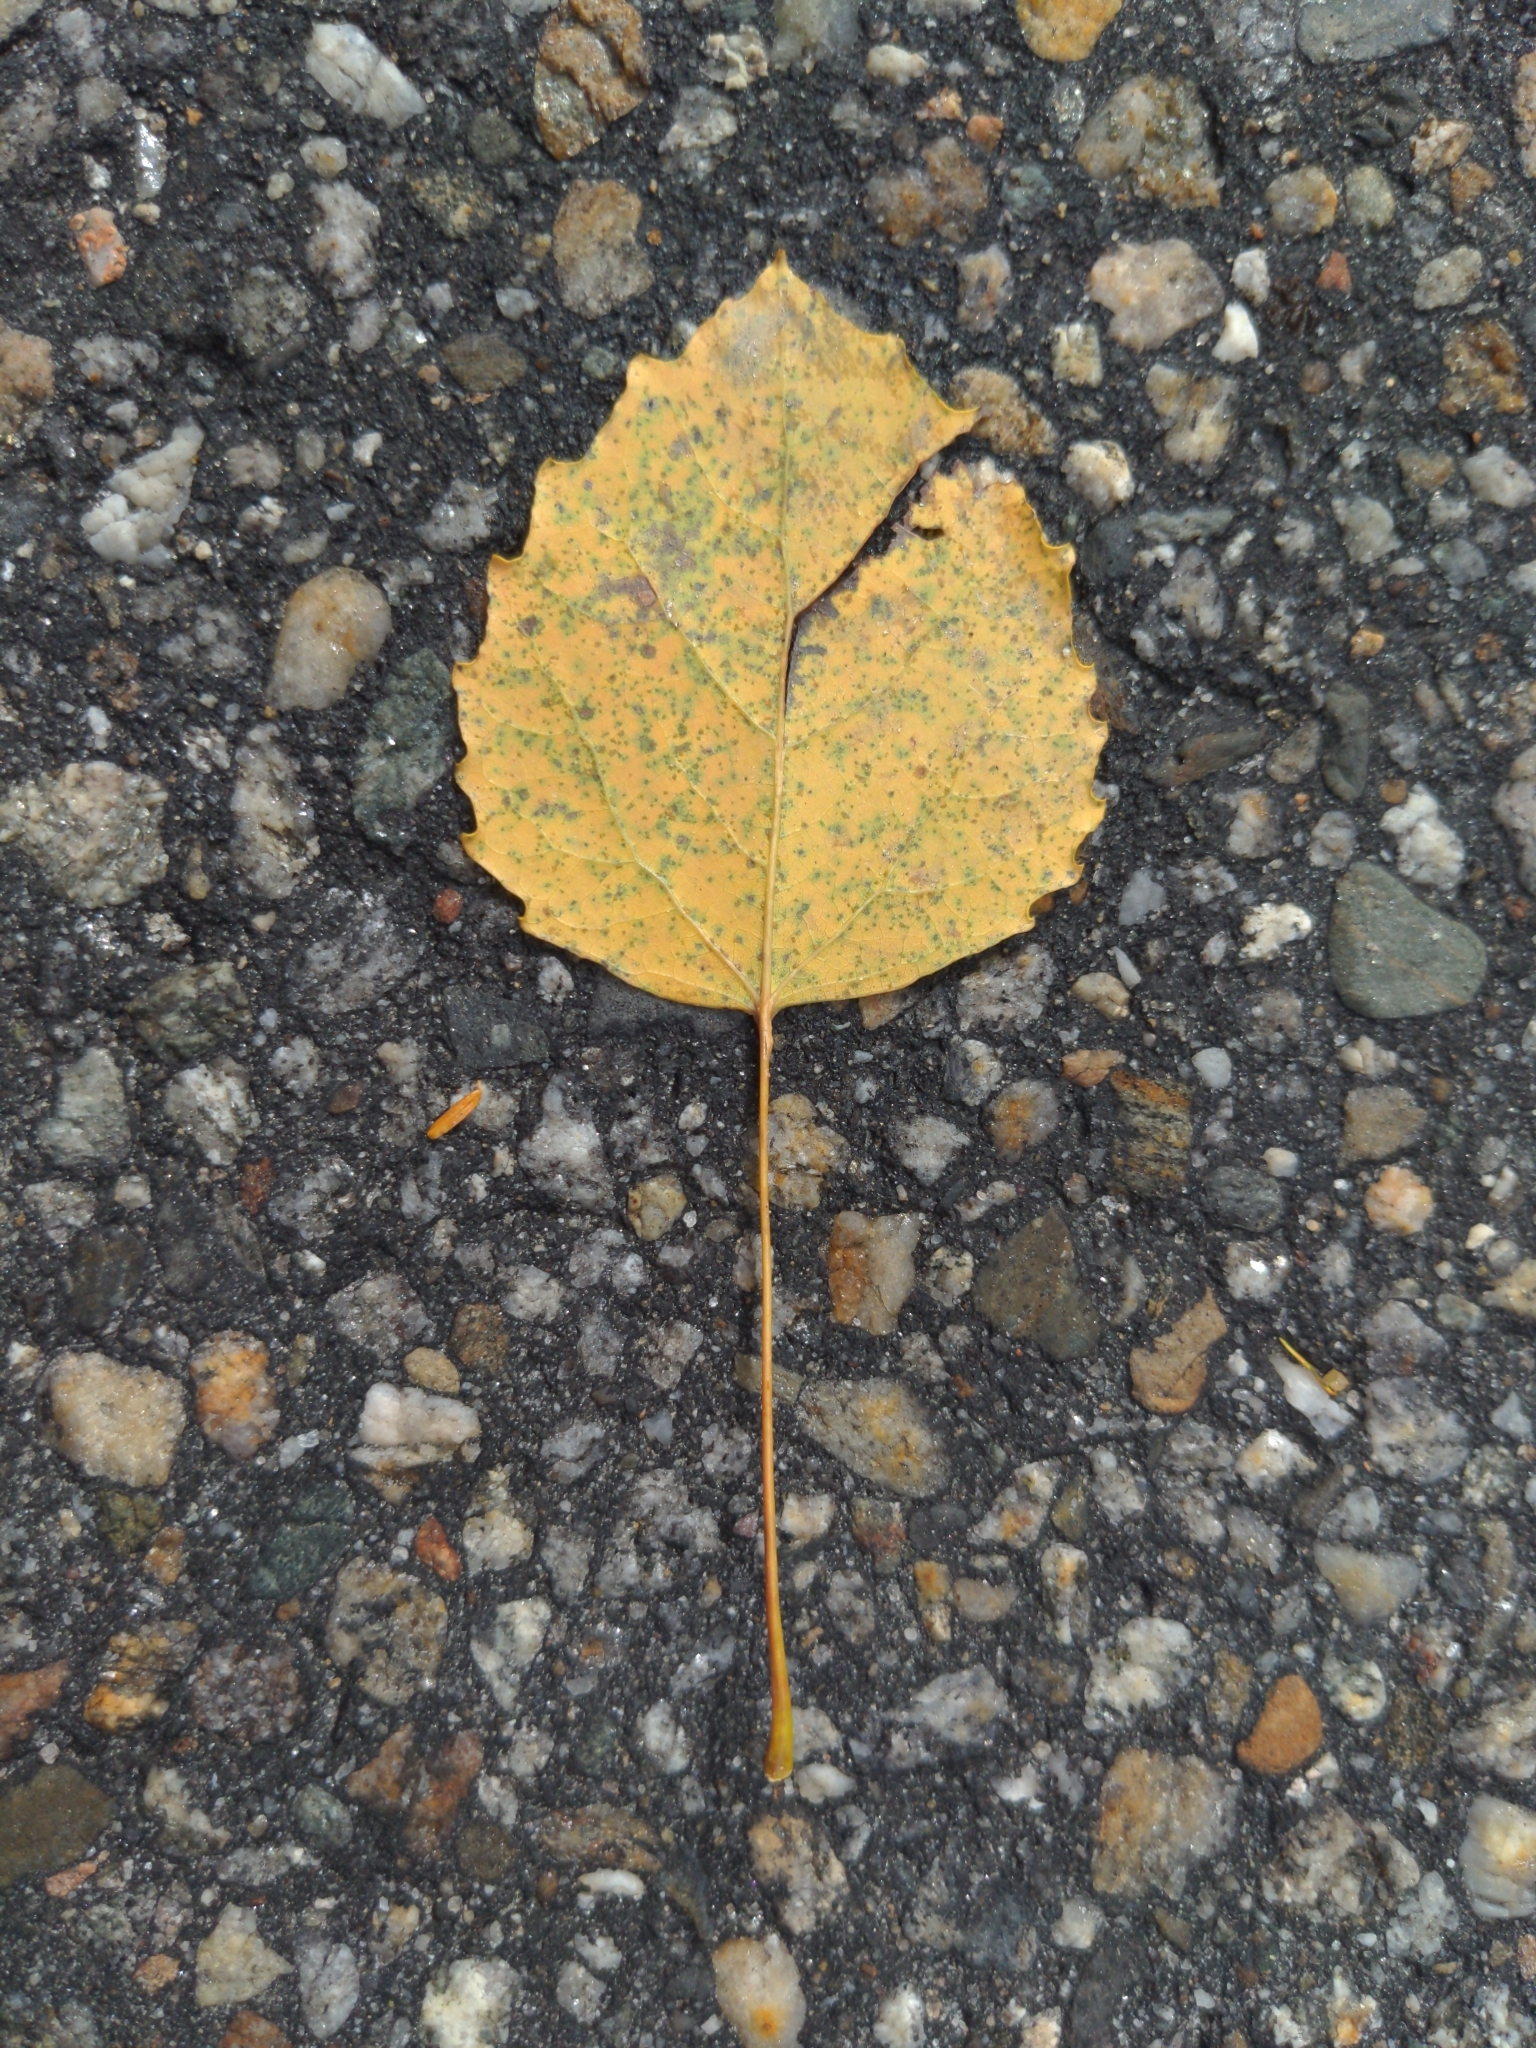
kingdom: Plantae
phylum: Tracheophyta
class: Magnoliopsida
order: Malpighiales
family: Salicaceae
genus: Populus
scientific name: Populus grandidentata
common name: Bigtooth aspen
